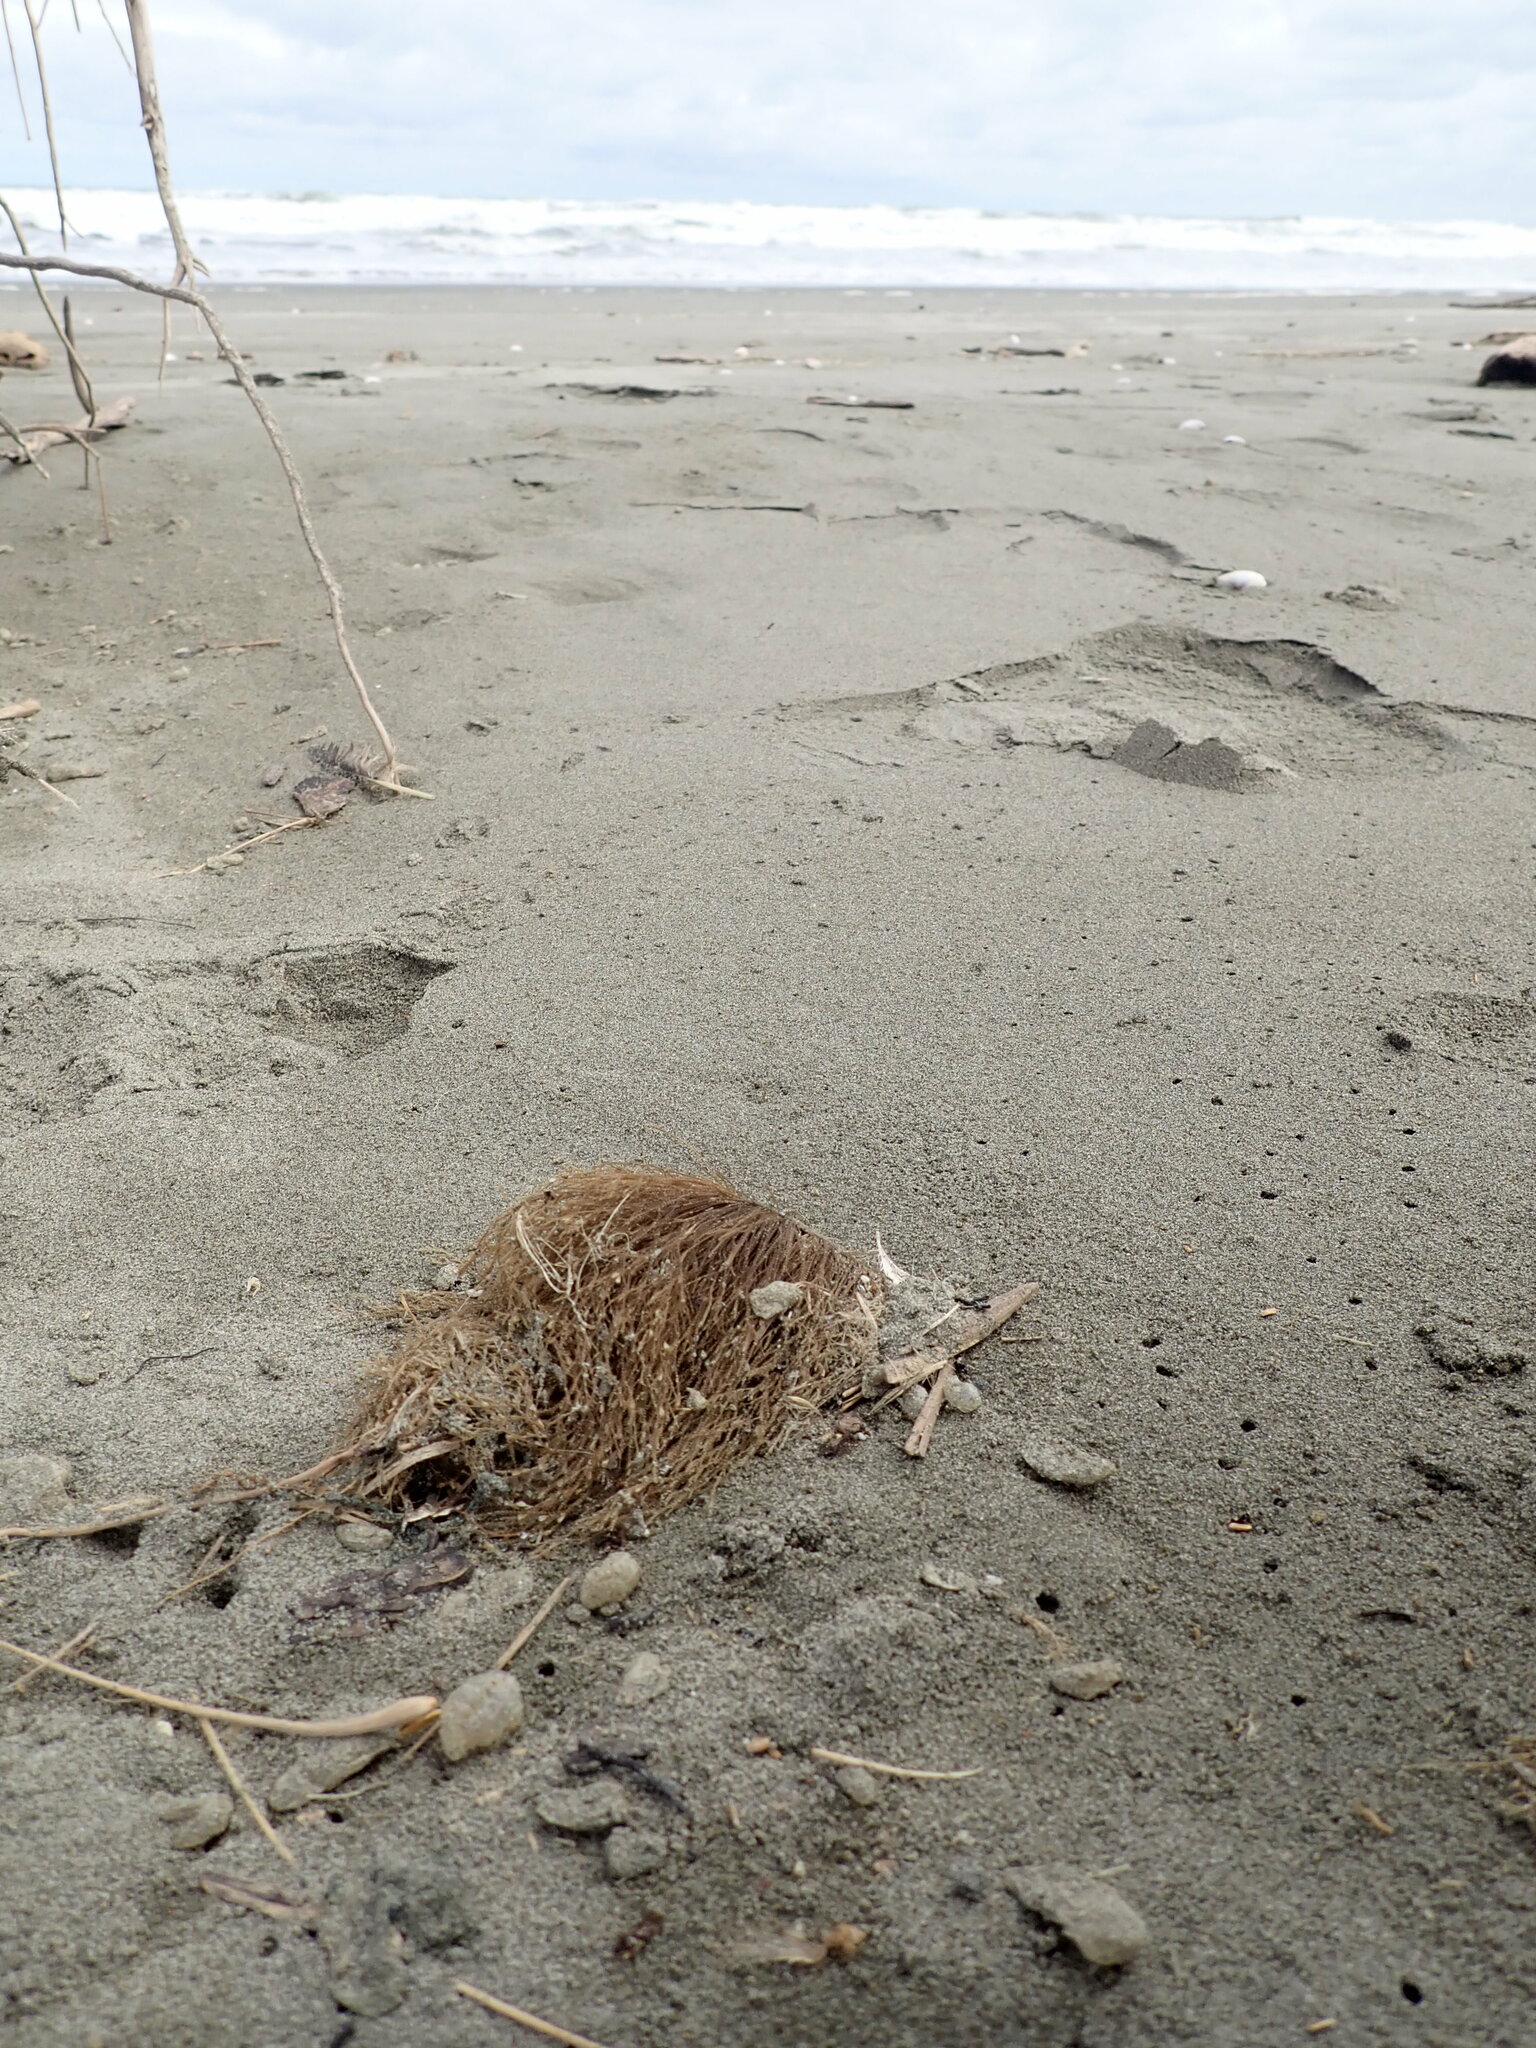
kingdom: Animalia
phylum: Cnidaria
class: Hydrozoa
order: Leptothecata
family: Sertulariidae
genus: Amphisbetia
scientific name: Amphisbetia bispinosa
